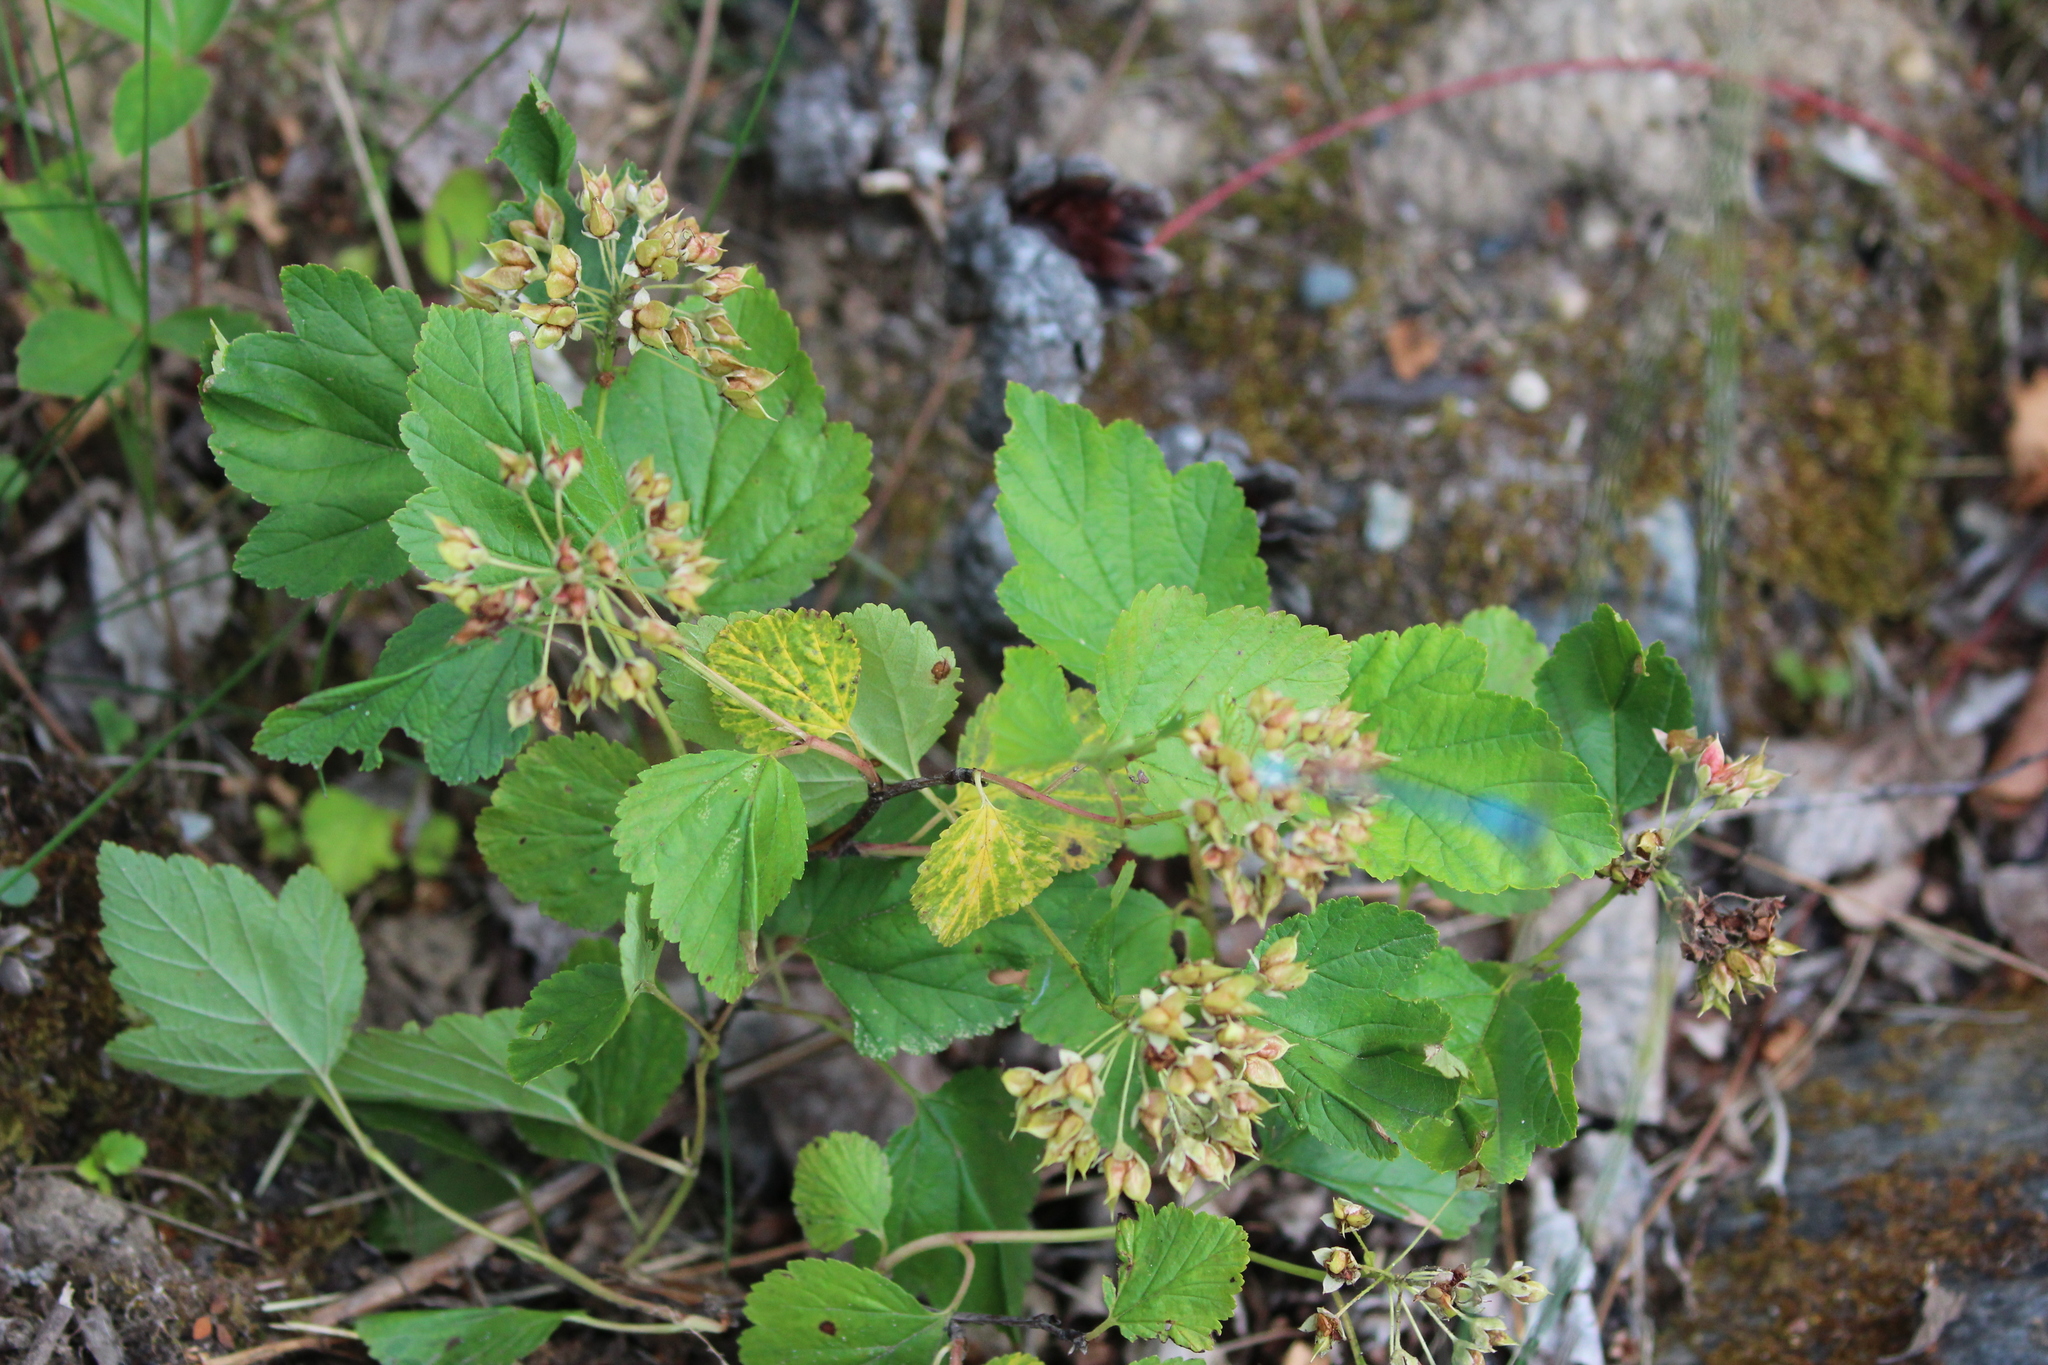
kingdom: Plantae
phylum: Tracheophyta
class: Magnoliopsida
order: Rosales
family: Rosaceae
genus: Physocarpus
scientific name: Physocarpus opulifolius
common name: Ninebark
